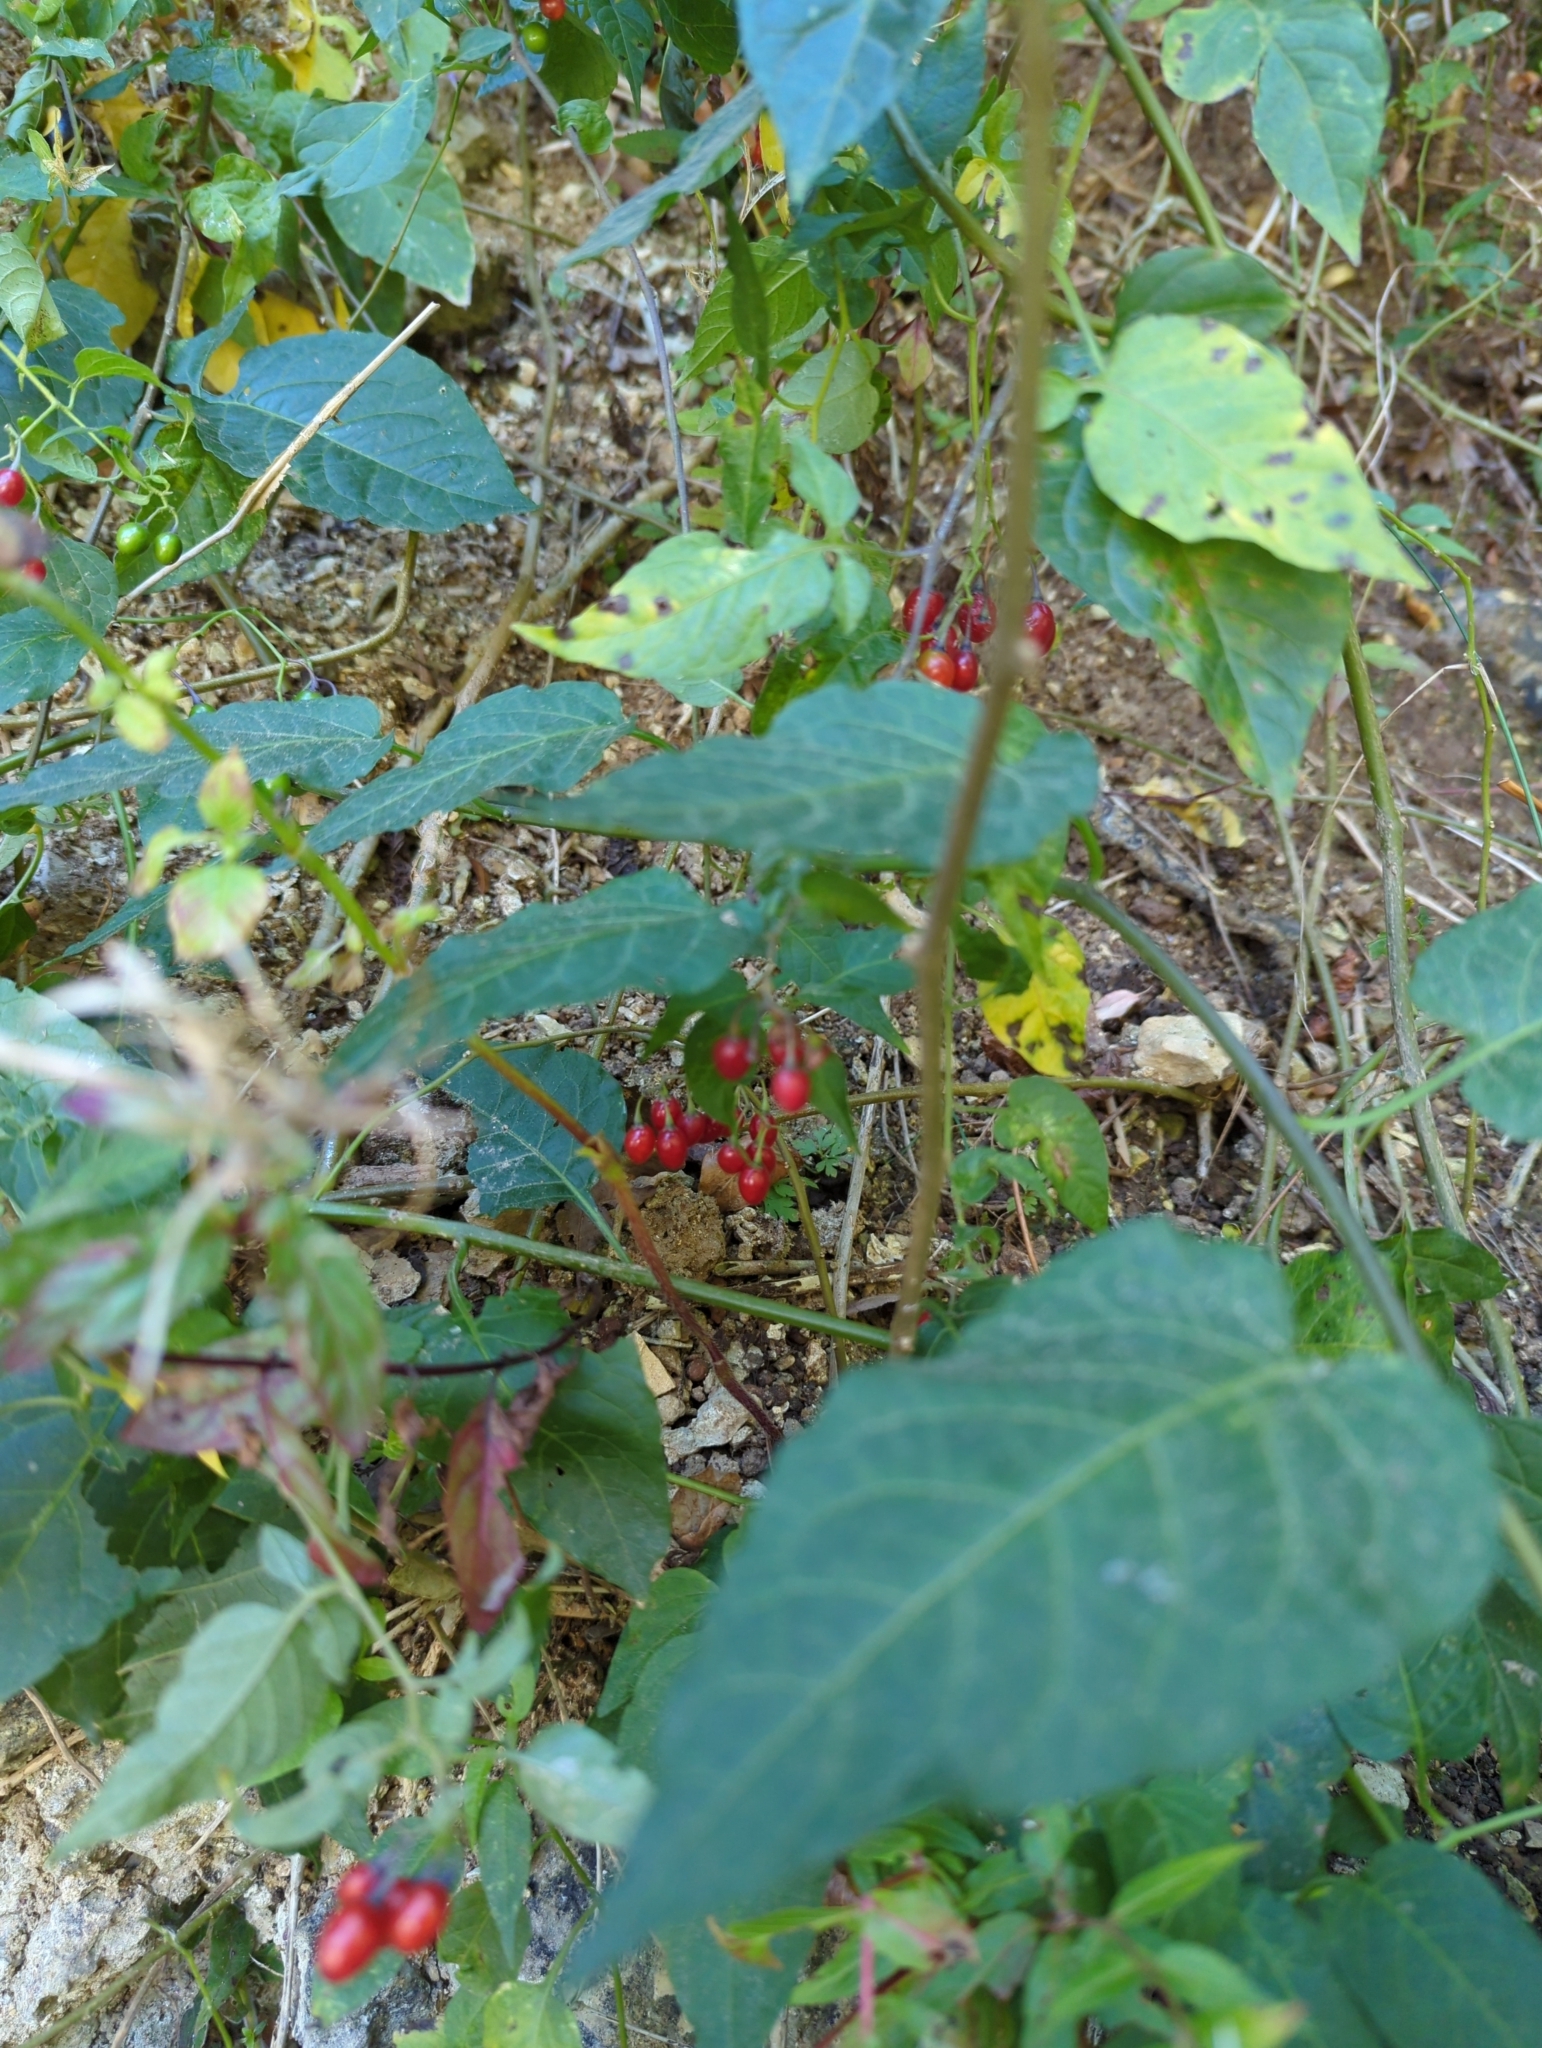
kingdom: Plantae
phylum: Tracheophyta
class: Magnoliopsida
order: Solanales
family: Solanaceae
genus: Solanum
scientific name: Solanum dulcamara
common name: Climbing nightshade
